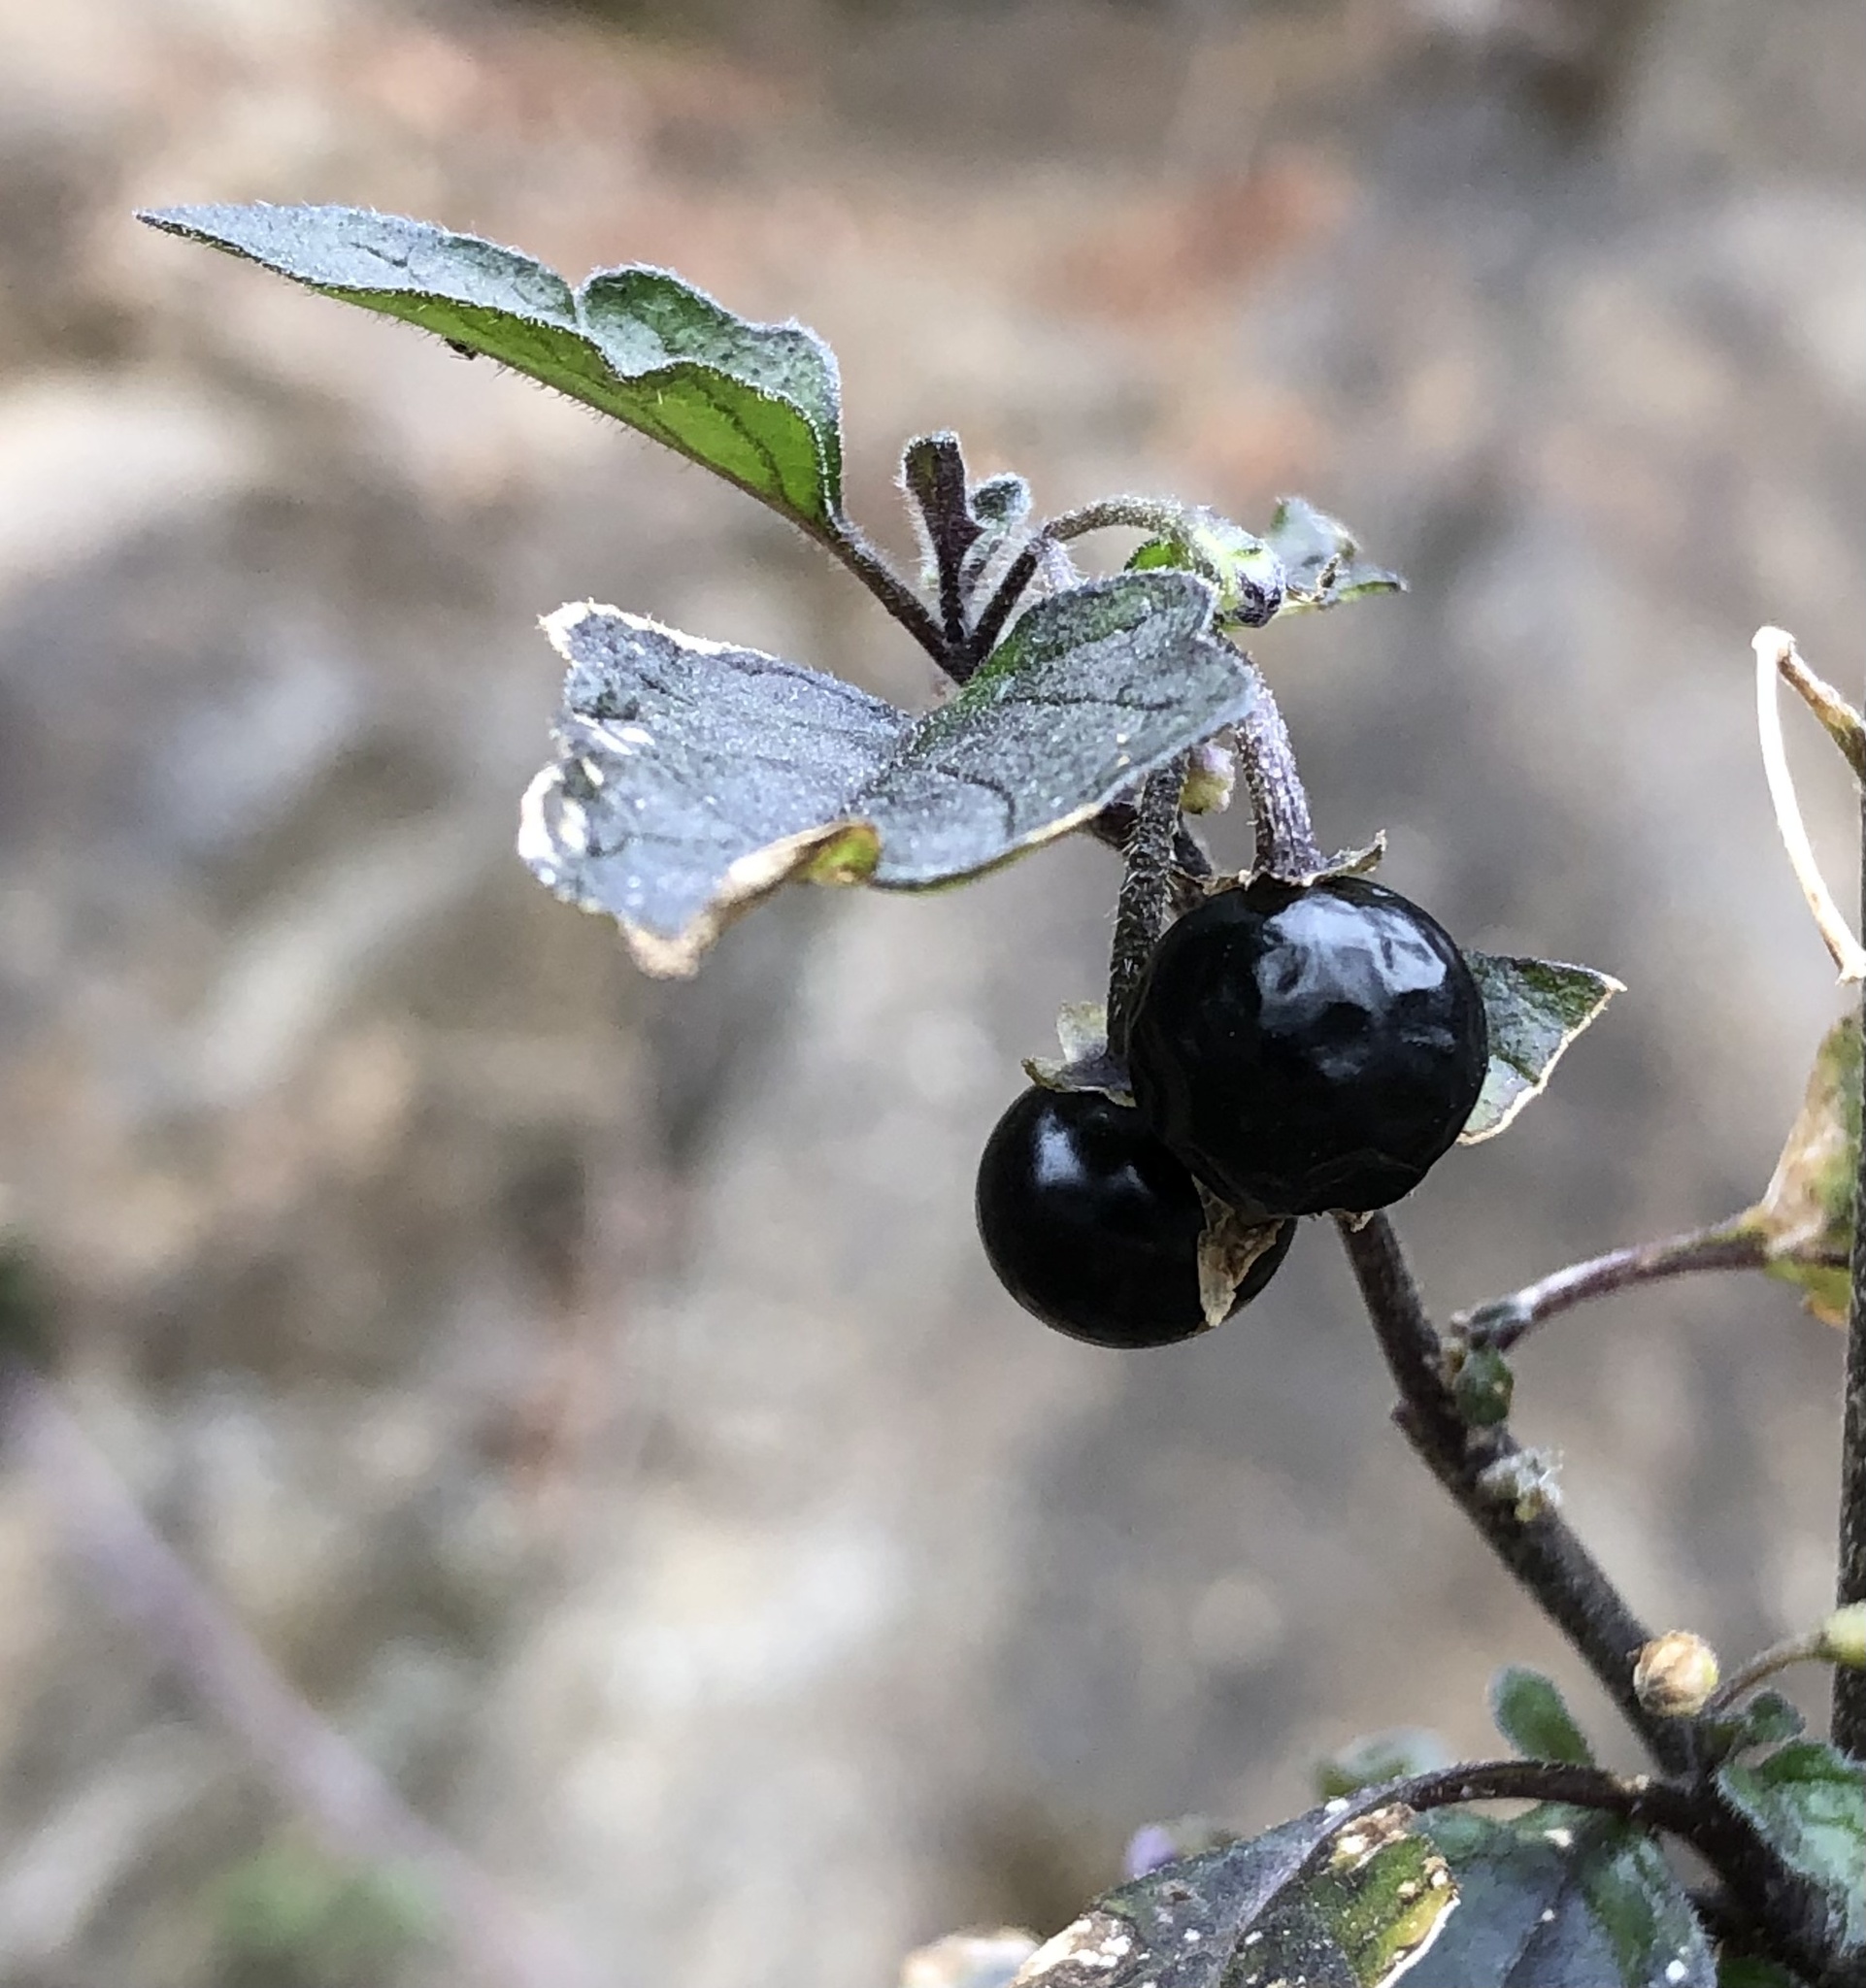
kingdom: Plantae
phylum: Tracheophyta
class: Magnoliopsida
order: Solanales
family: Solanaceae
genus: Solanum
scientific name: Solanum nigrum
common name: Black nightshade
